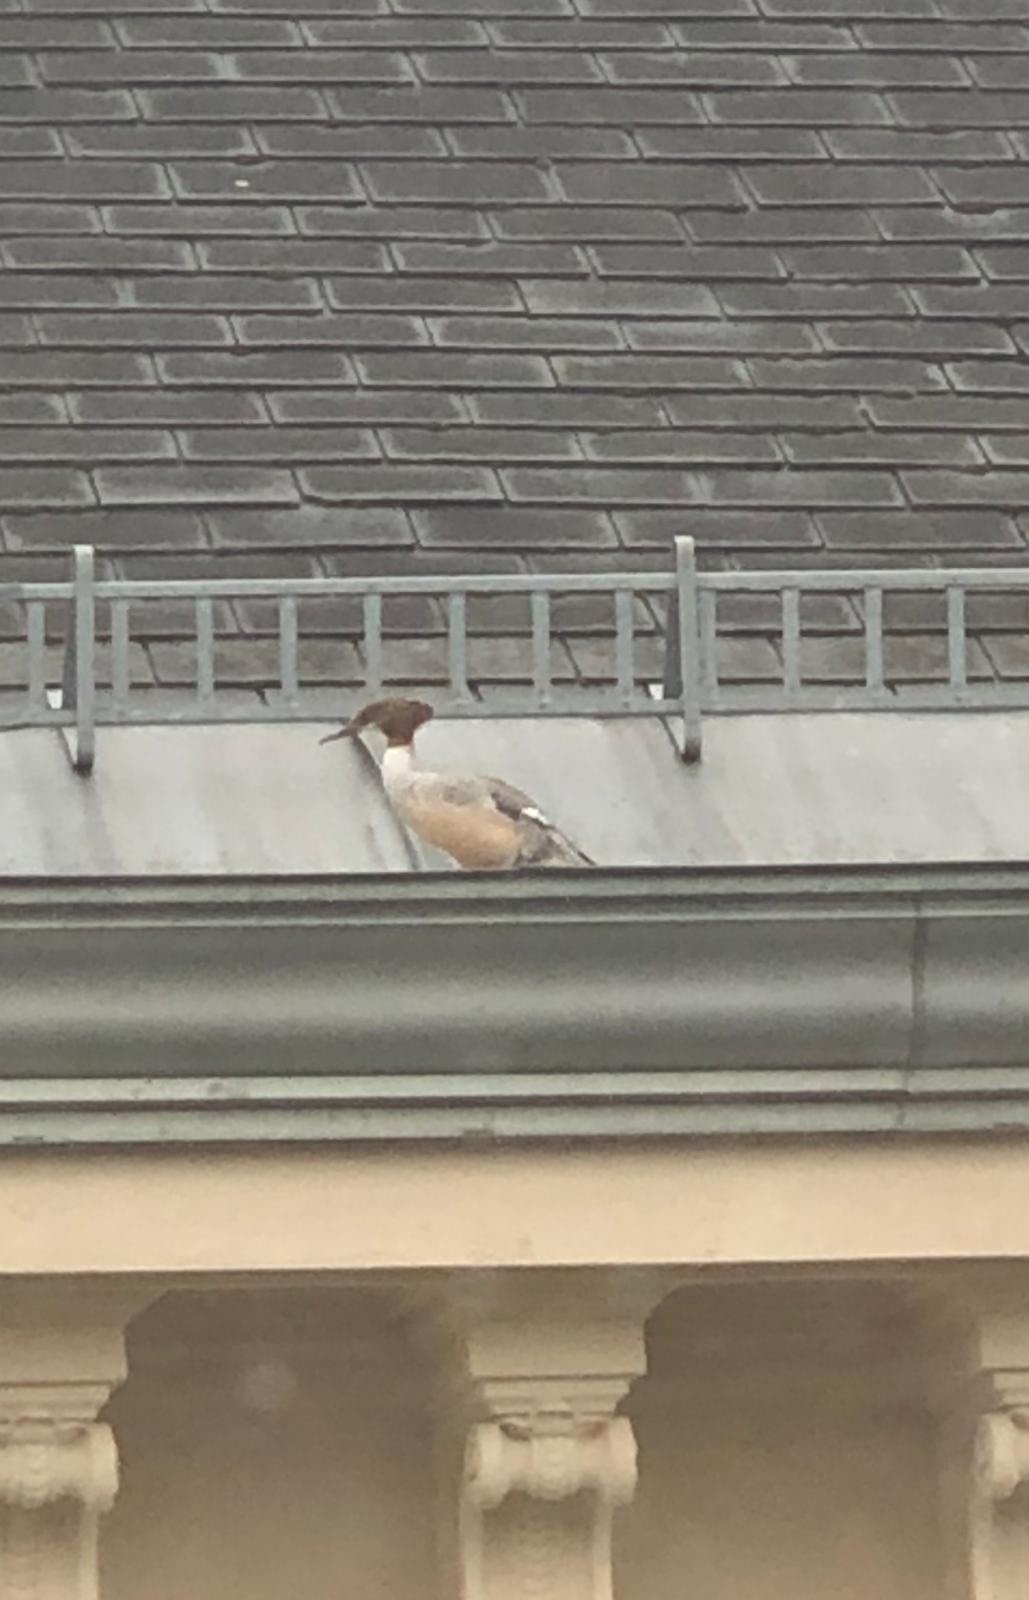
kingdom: Animalia
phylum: Chordata
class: Aves
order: Anseriformes
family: Anatidae
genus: Mergus
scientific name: Mergus merganser
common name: Common merganser
